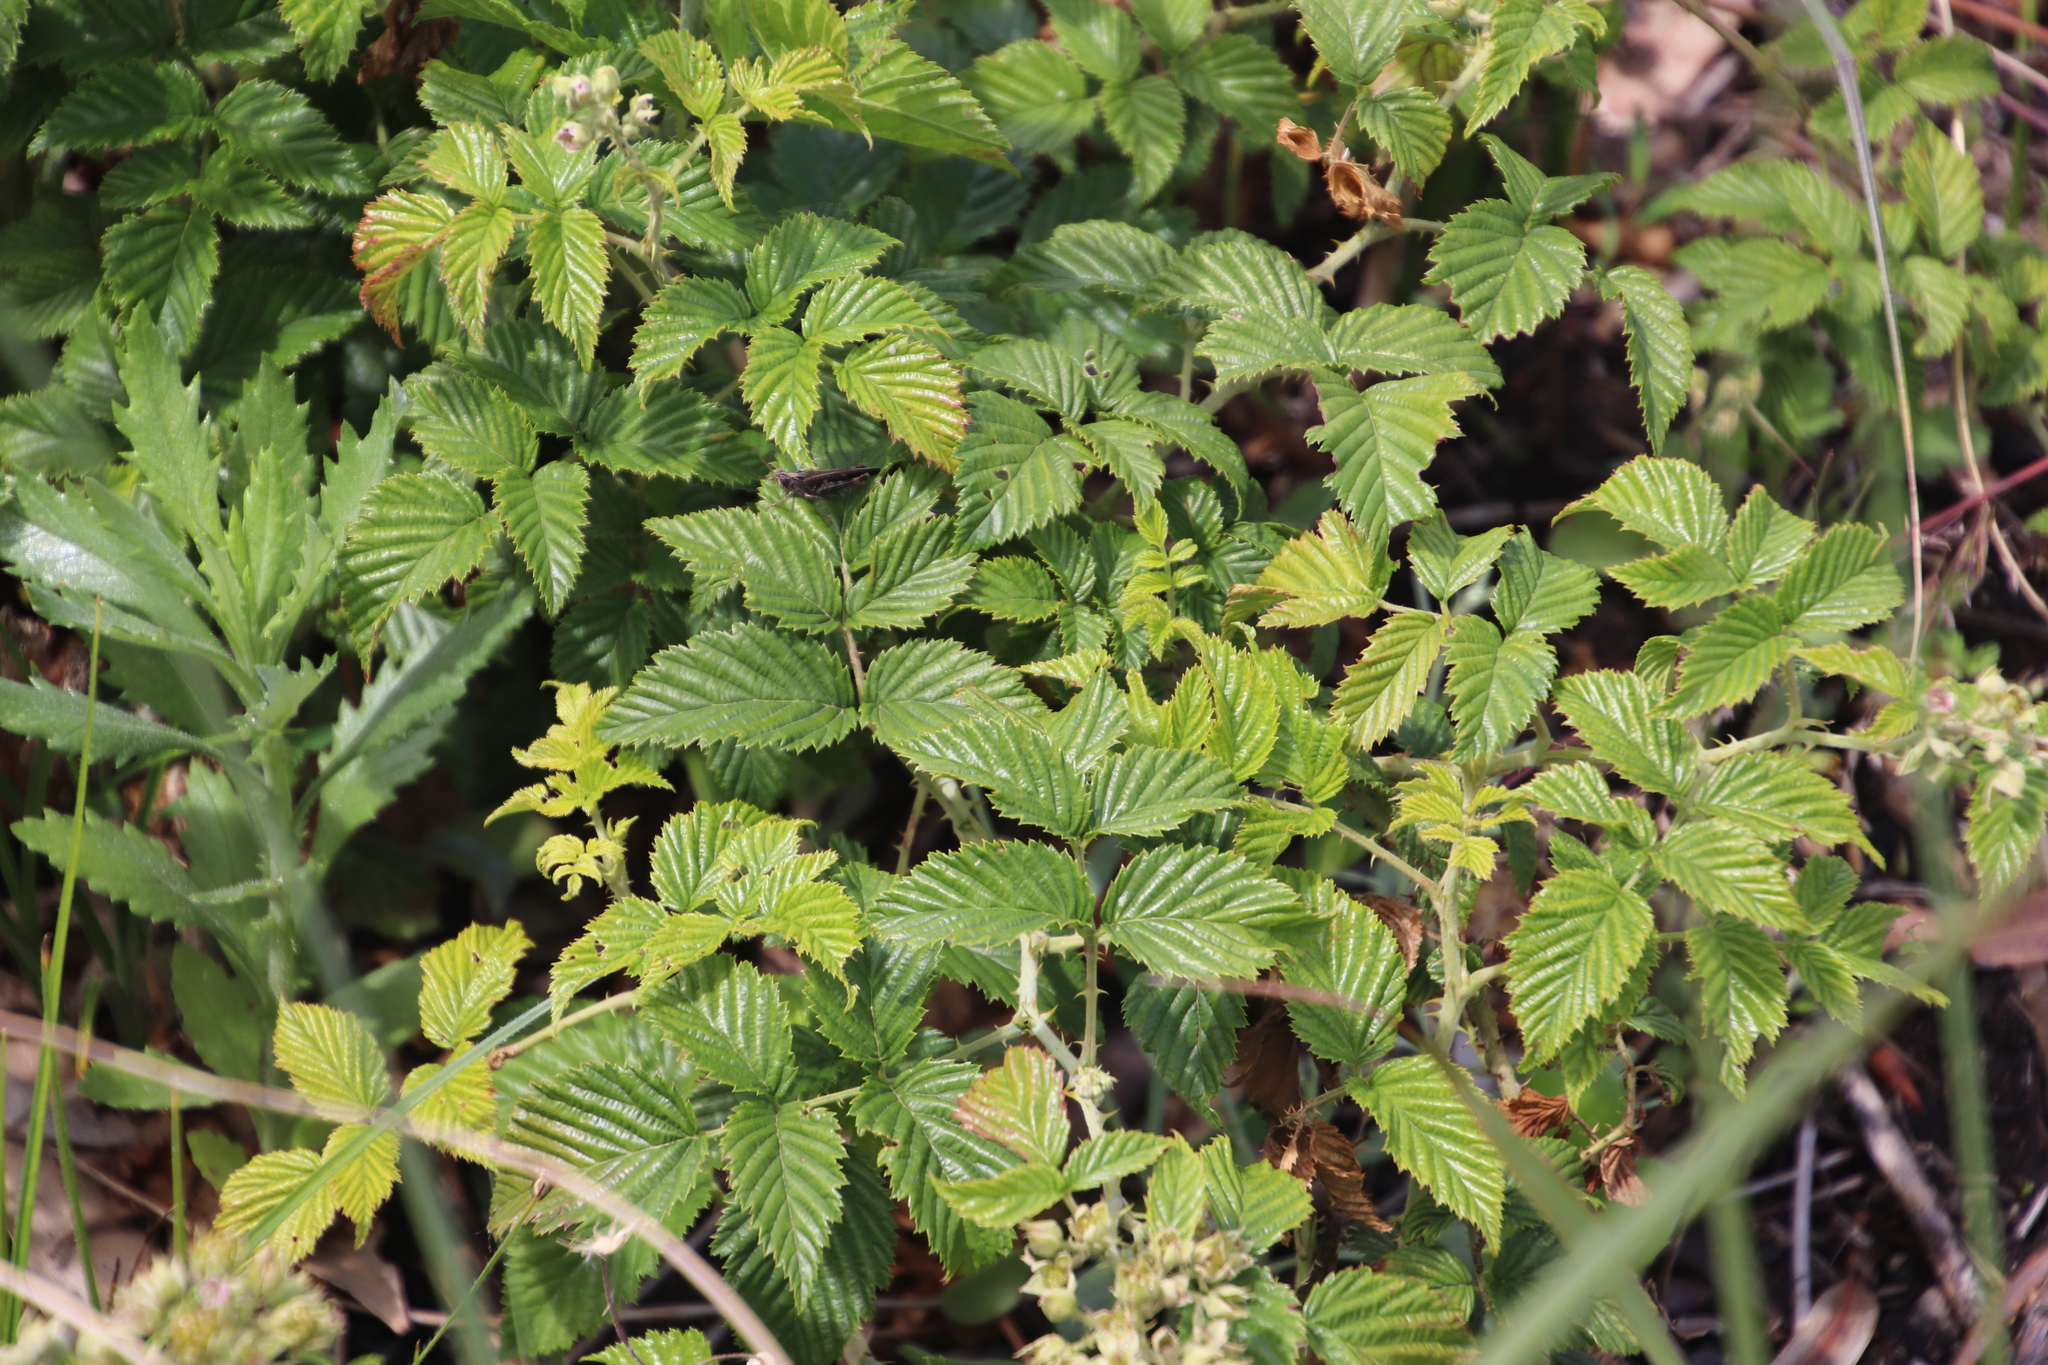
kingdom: Plantae
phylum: Tracheophyta
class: Magnoliopsida
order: Rosales
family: Rosaceae
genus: Rubus
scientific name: Rubus pinnatus
